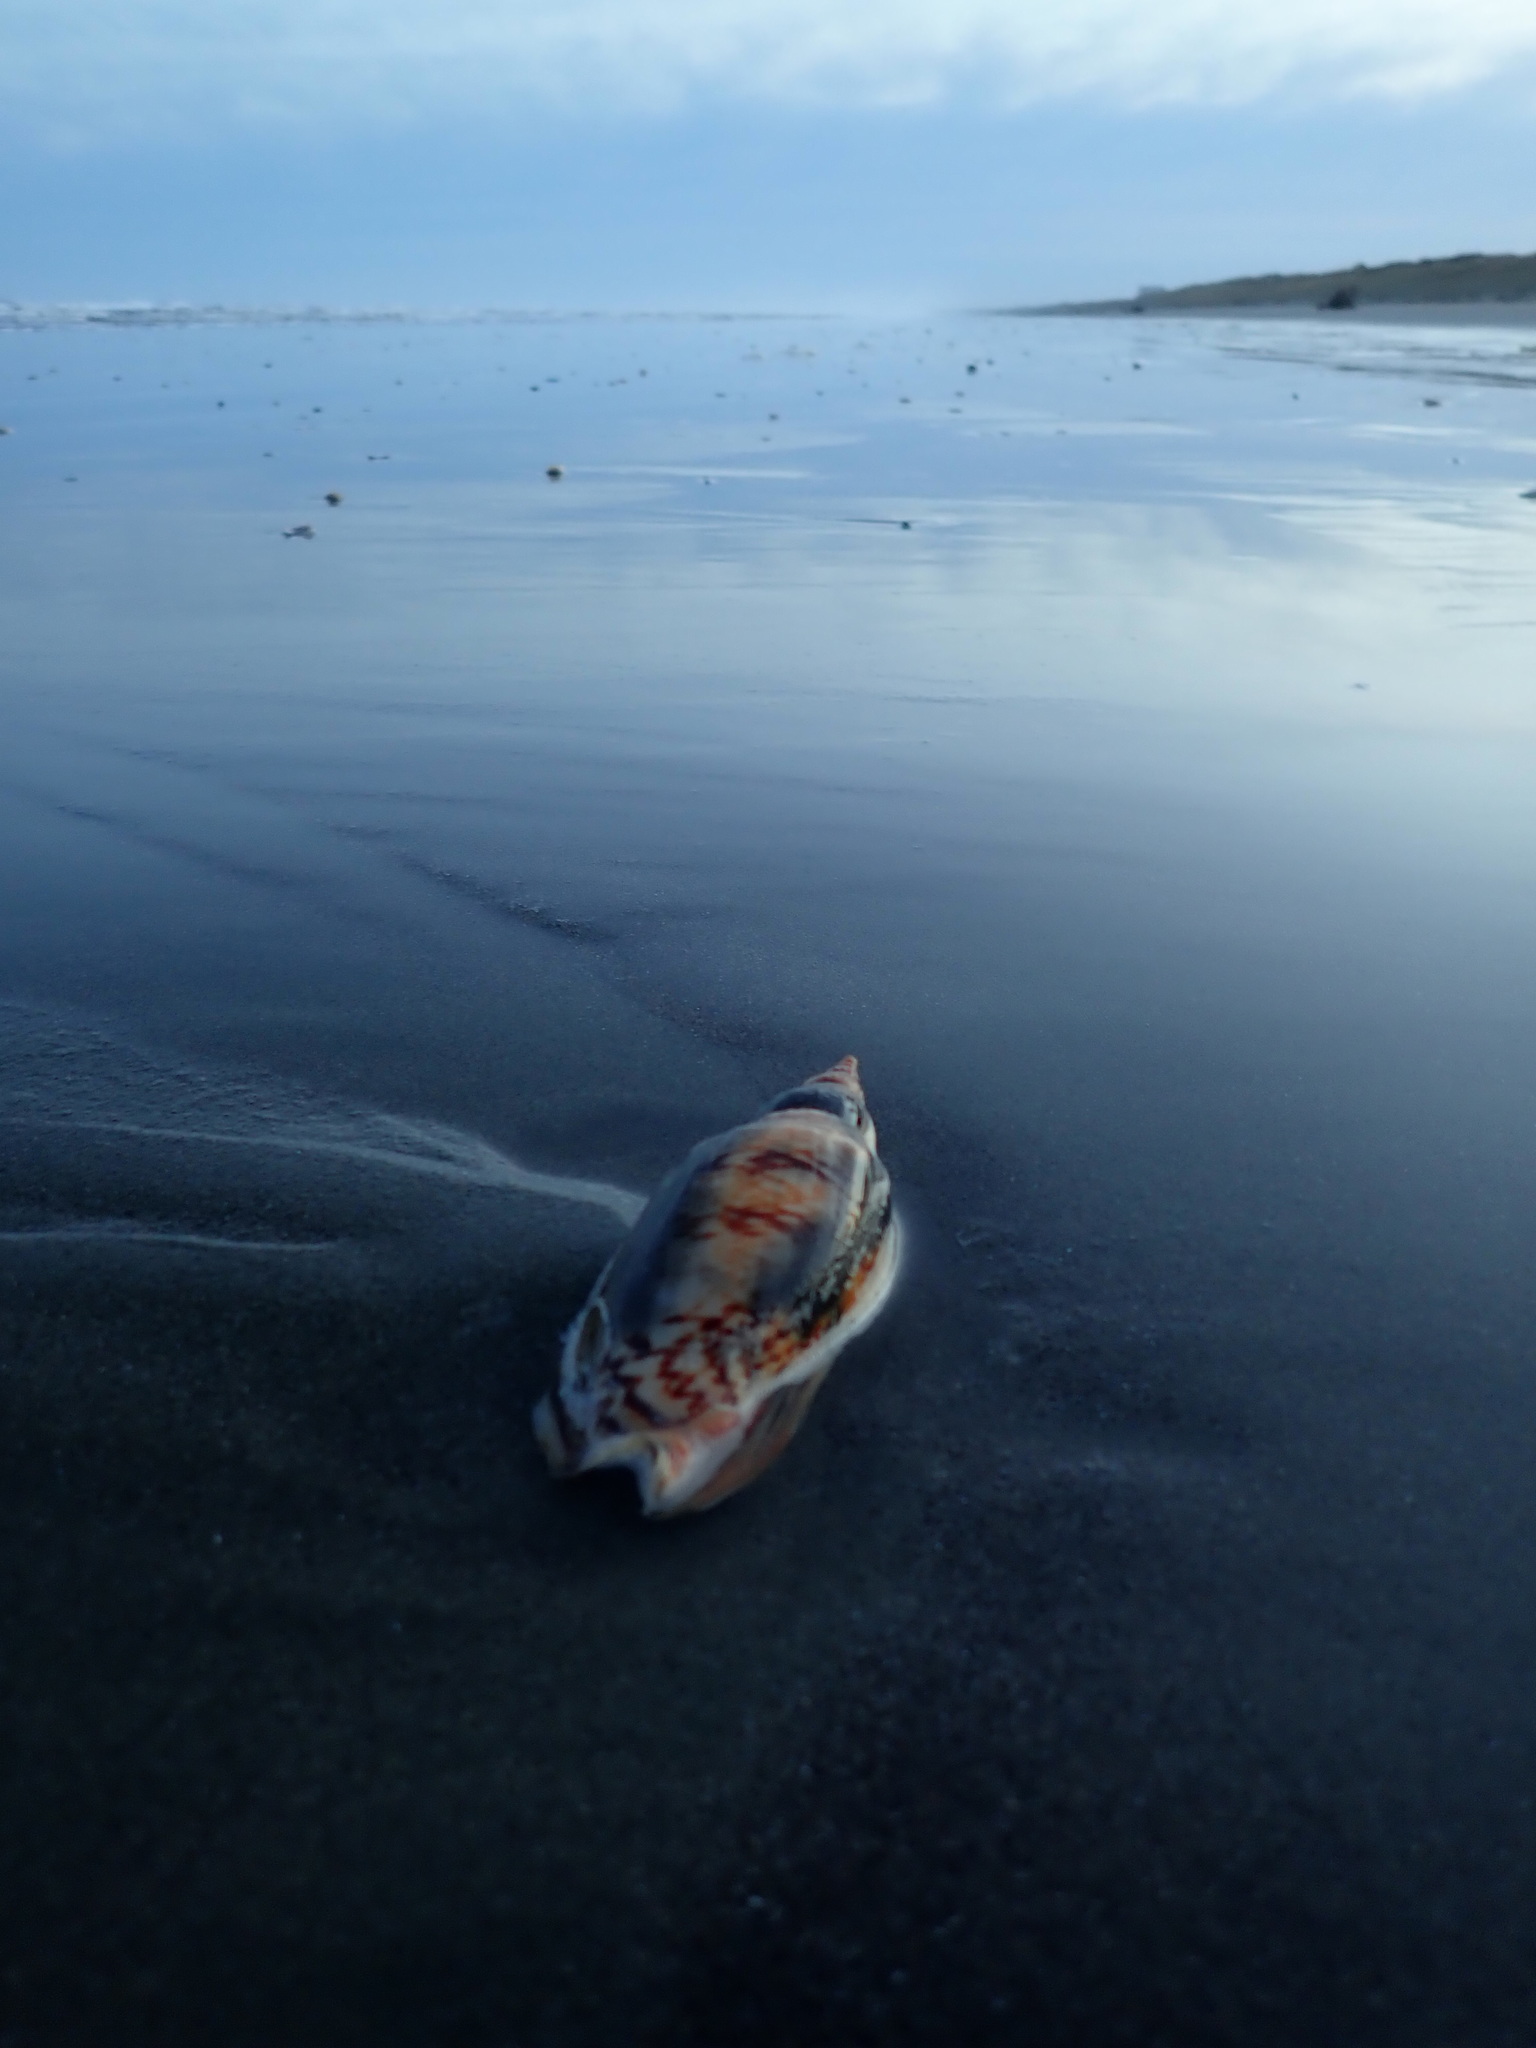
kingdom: Animalia
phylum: Mollusca
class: Gastropoda
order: Neogastropoda
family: Volutidae
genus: Alcithoe
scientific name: Alcithoe arabica
